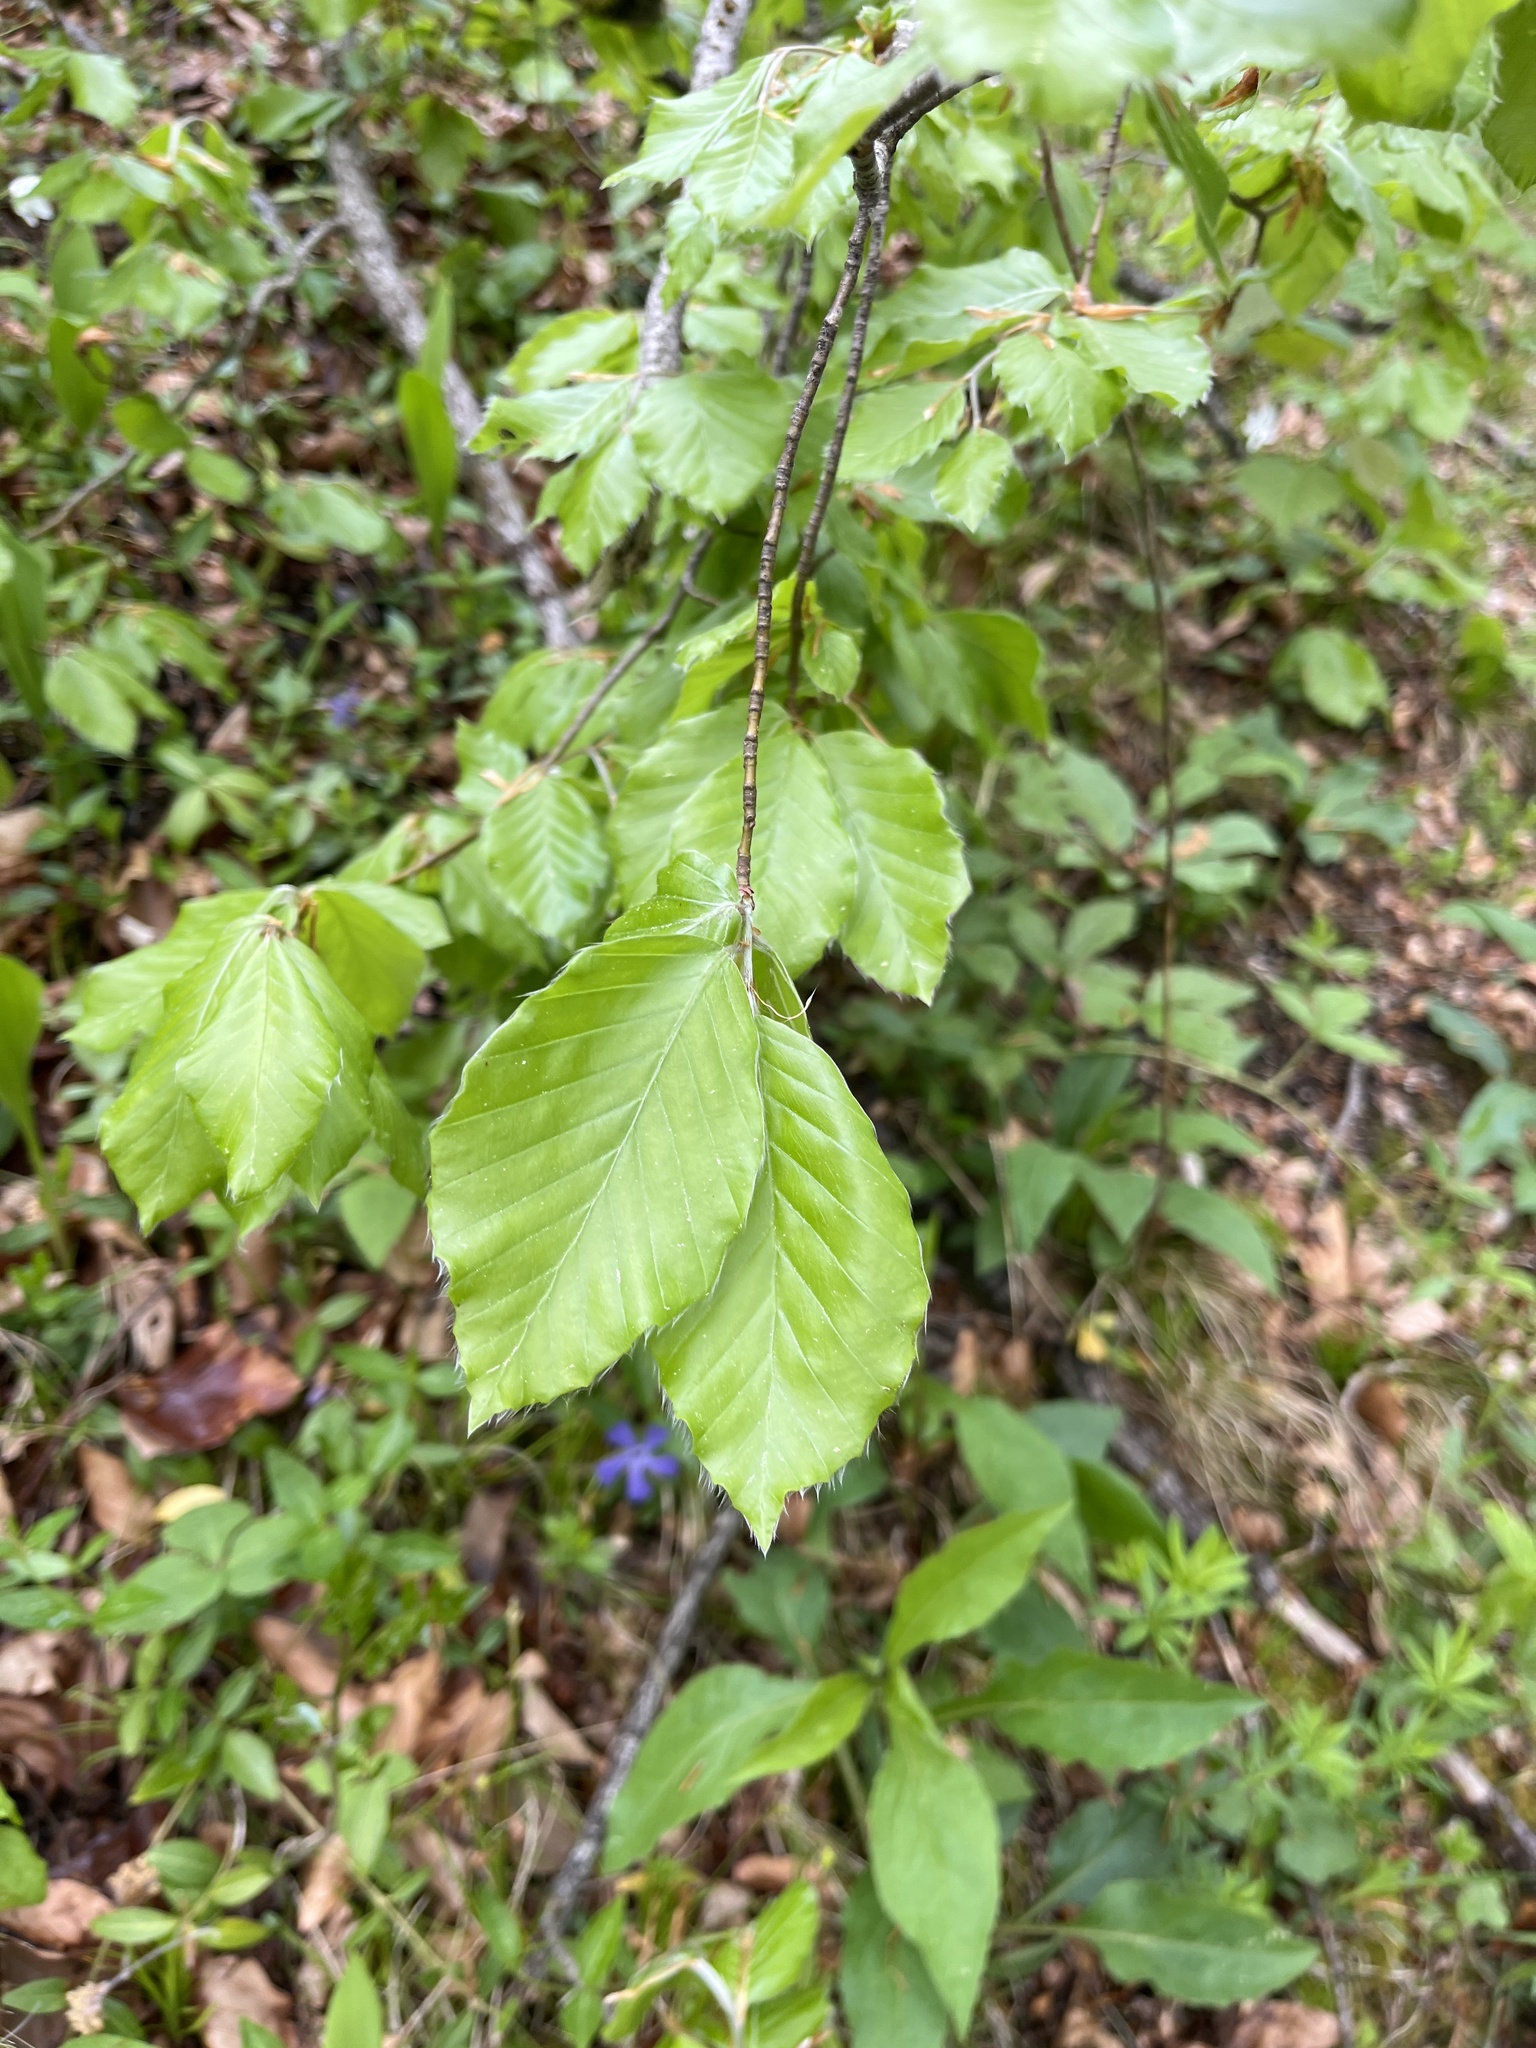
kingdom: Plantae
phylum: Tracheophyta
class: Magnoliopsida
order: Fagales
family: Fagaceae
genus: Fagus
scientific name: Fagus sylvatica
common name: Beech
